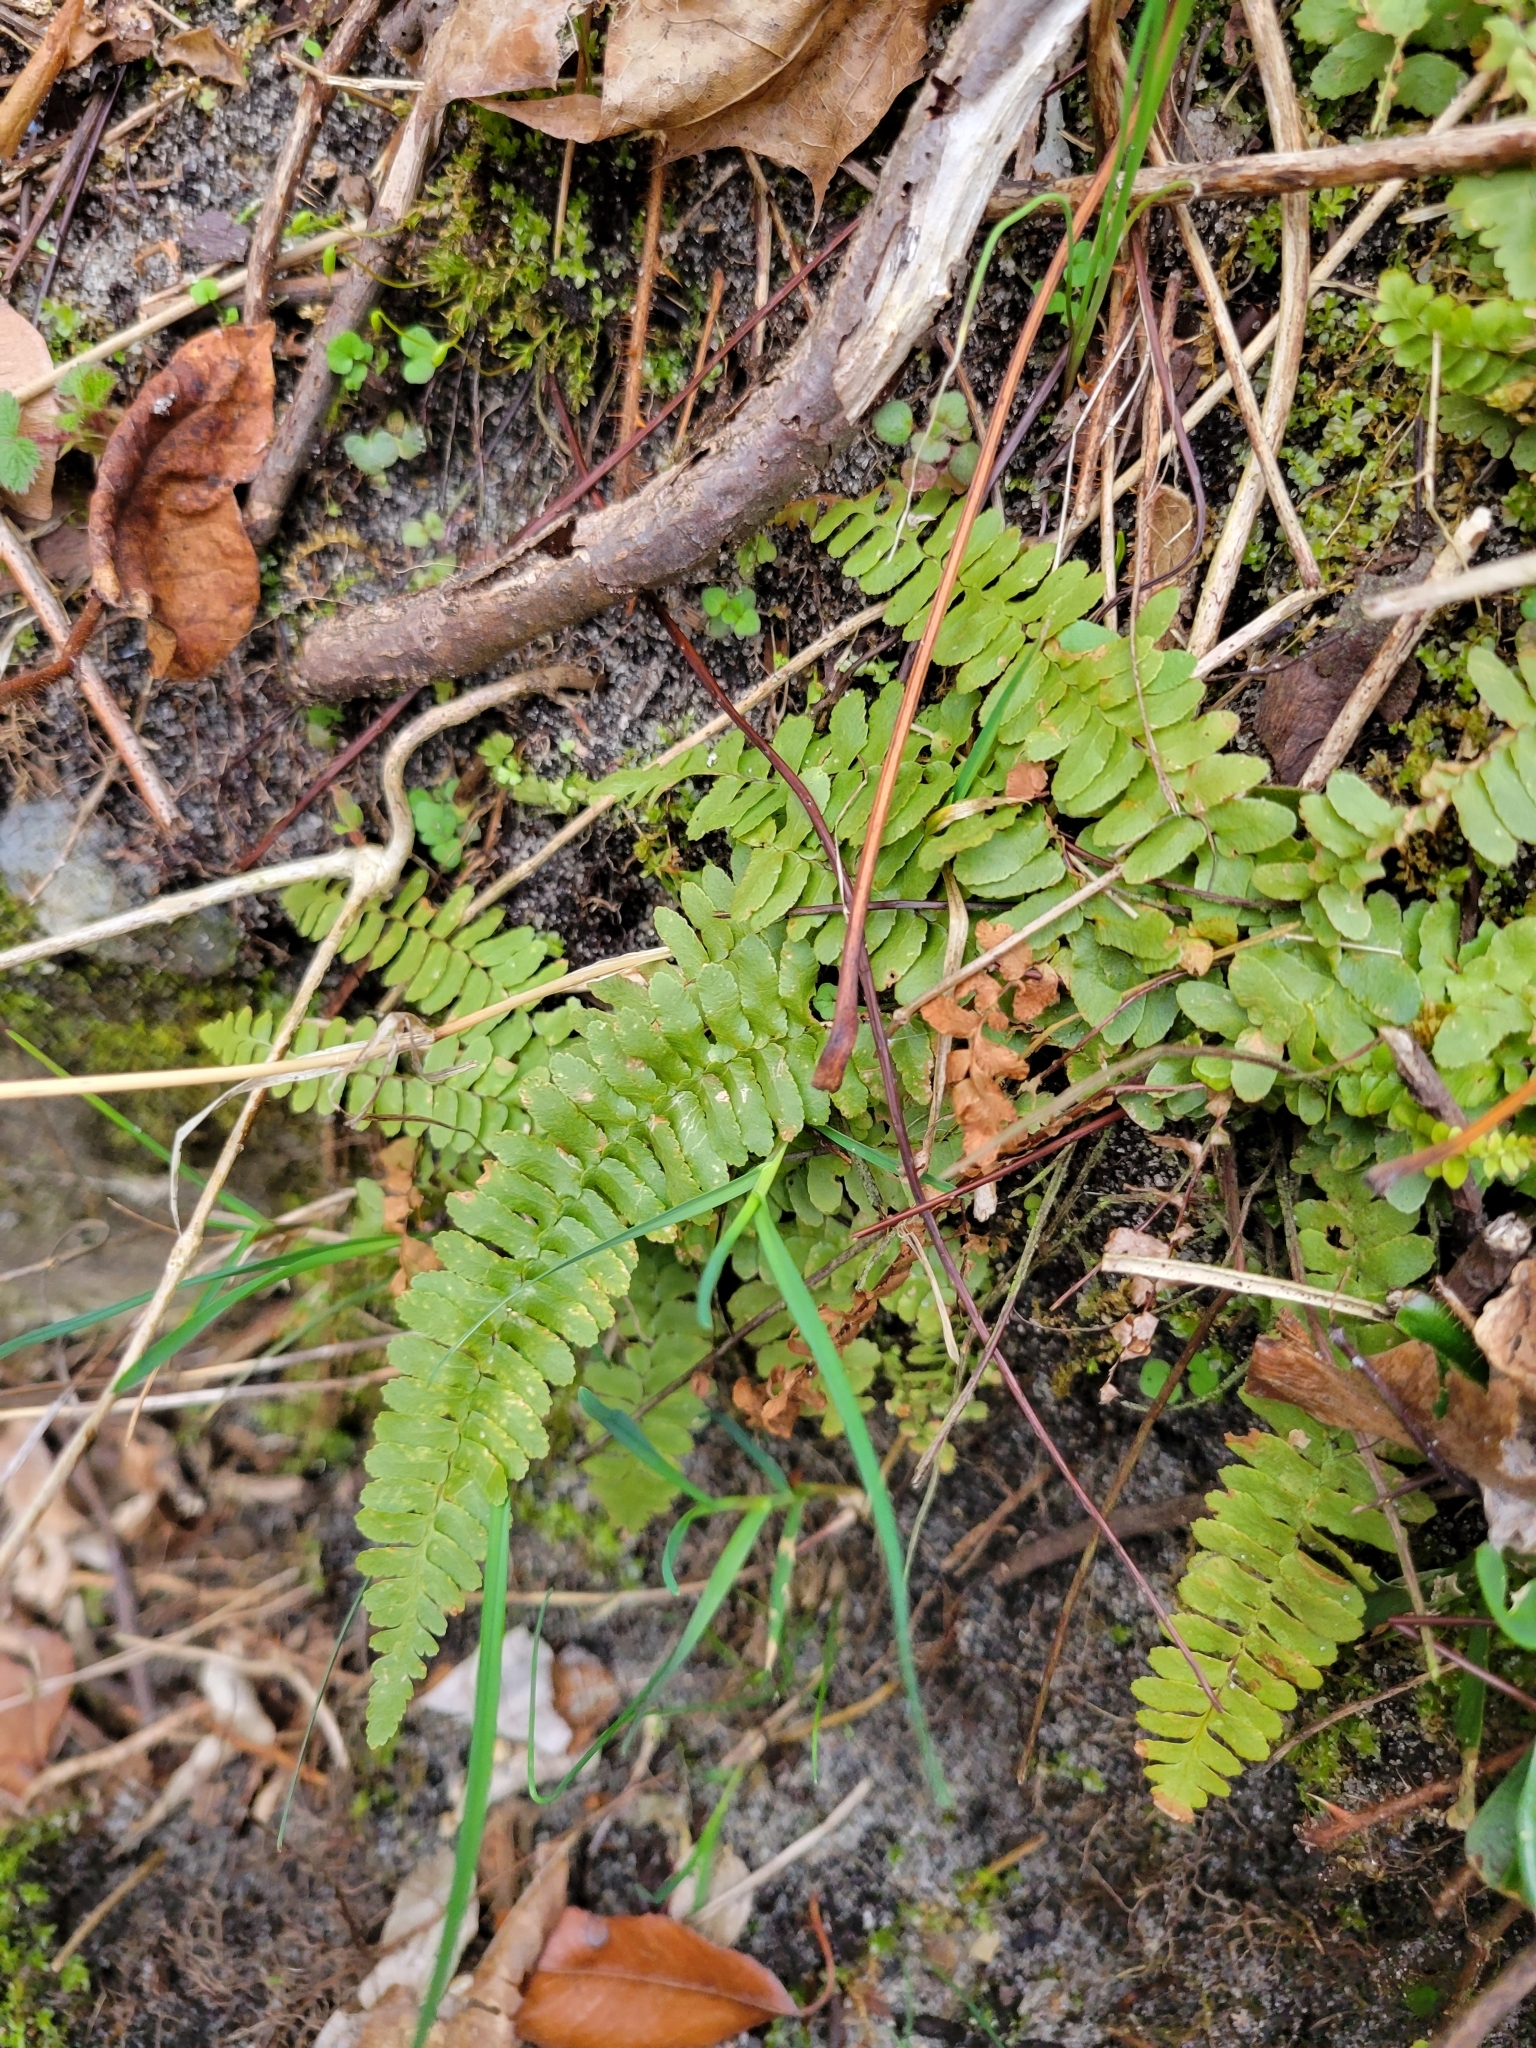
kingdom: Plantae
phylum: Tracheophyta
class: Polypodiopsida
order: Polypodiales
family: Aspleniaceae
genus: Asplenium
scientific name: Asplenium platyneuron
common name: Ebony spleenwort
